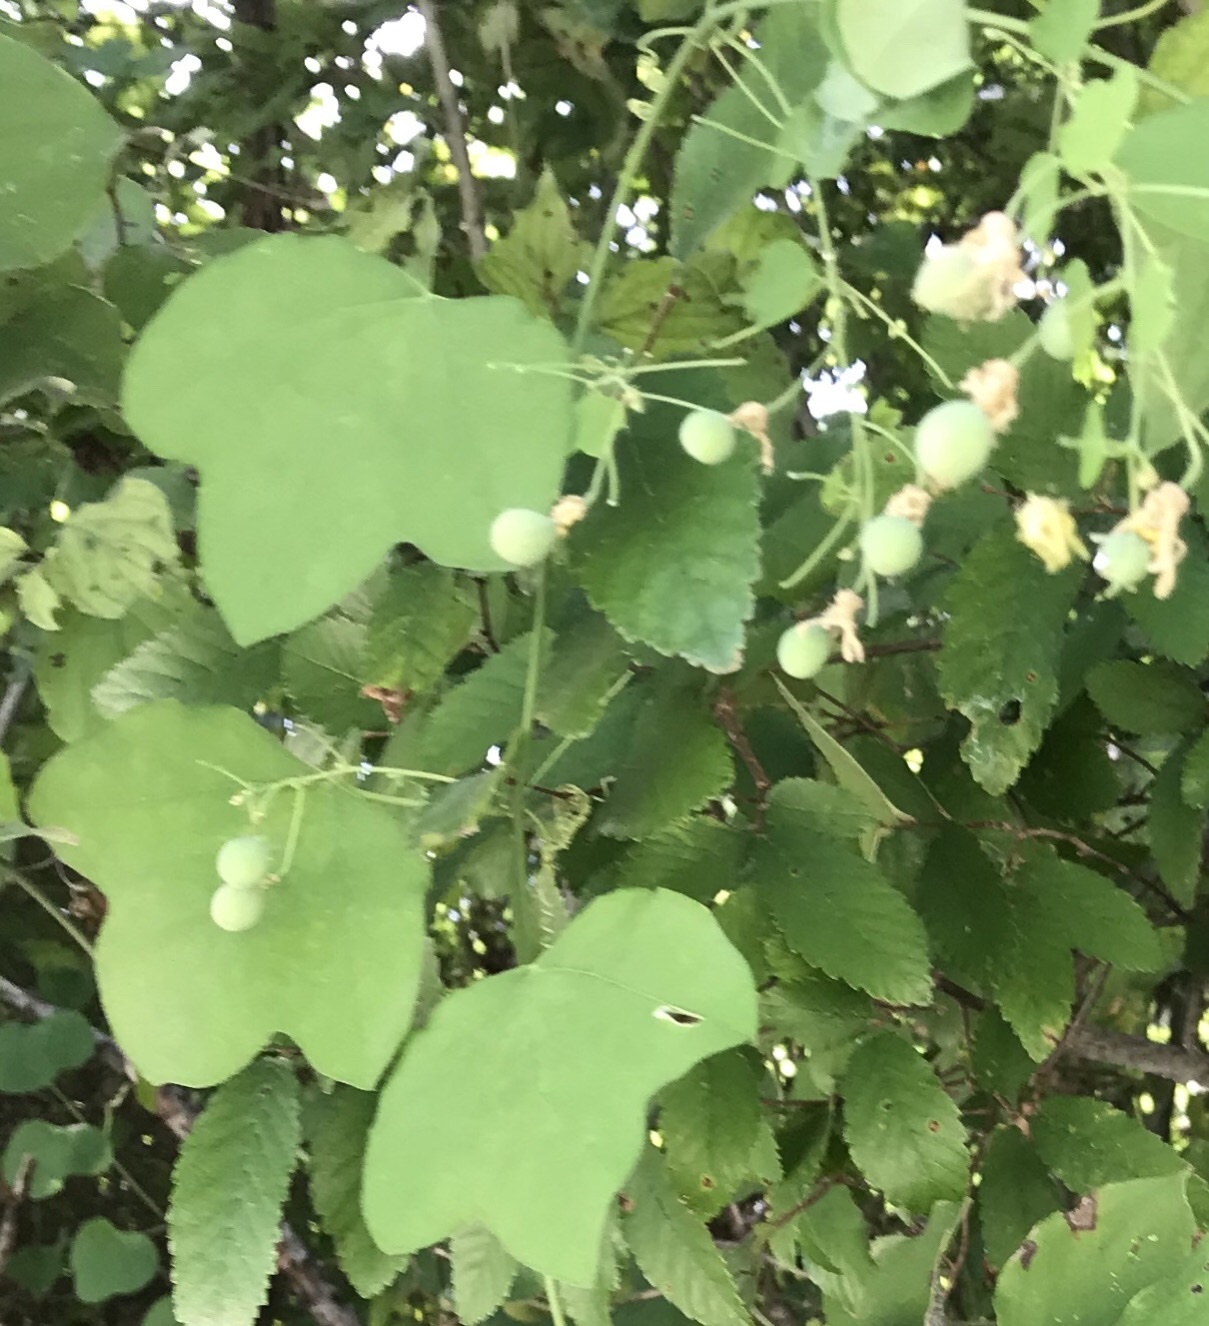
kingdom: Plantae
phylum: Tracheophyta
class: Magnoliopsida
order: Malpighiales
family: Passifloraceae
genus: Passiflora
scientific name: Passiflora lutea
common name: Yellow passionflower
